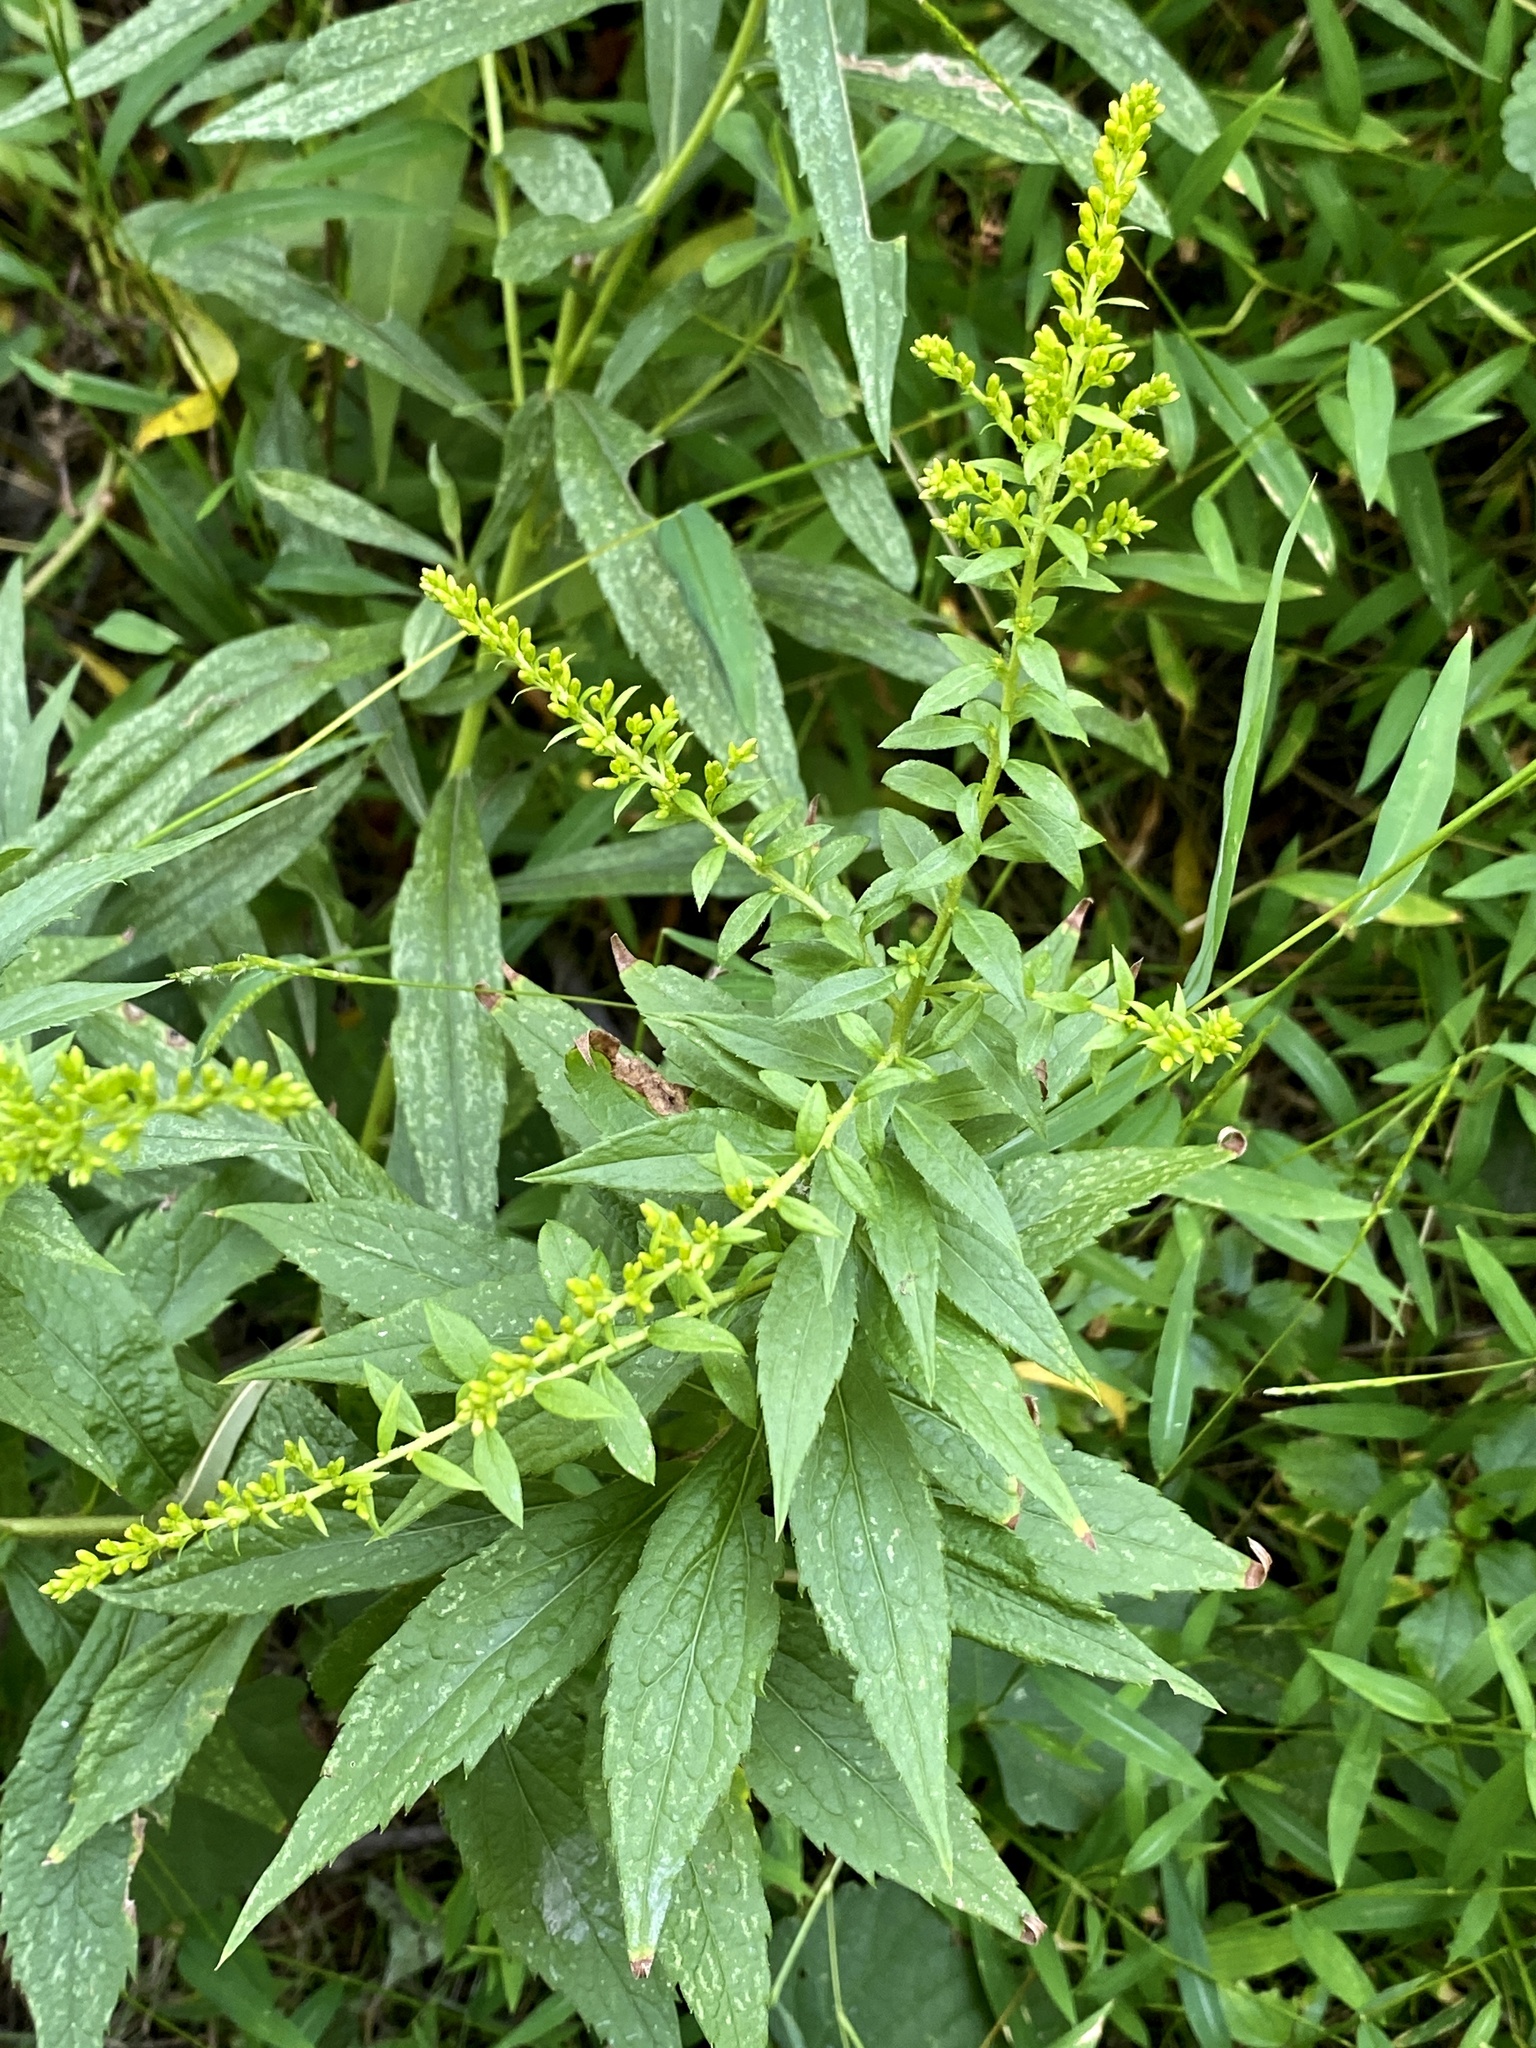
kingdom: Plantae
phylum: Tracheophyta
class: Magnoliopsida
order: Asterales
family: Asteraceae
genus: Solidago
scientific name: Solidago rugosa
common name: Rough-stemmed goldenrod
